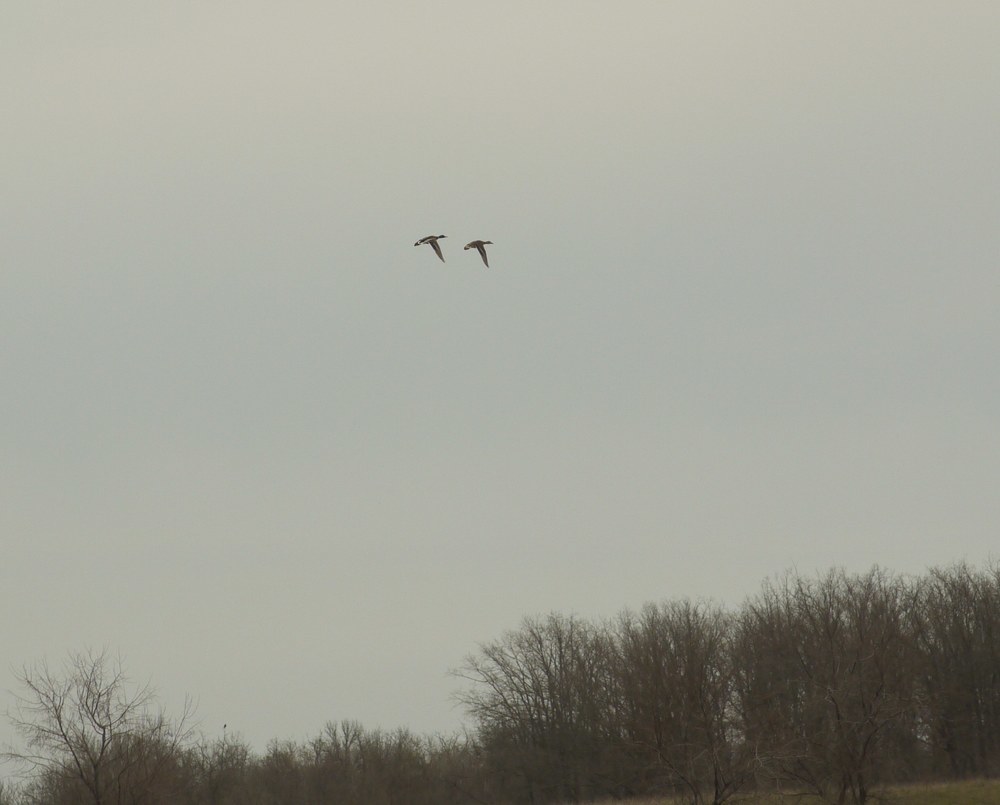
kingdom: Animalia
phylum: Chordata
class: Aves
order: Anseriformes
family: Anatidae
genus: Anas
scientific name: Anas platyrhynchos
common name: Mallard
